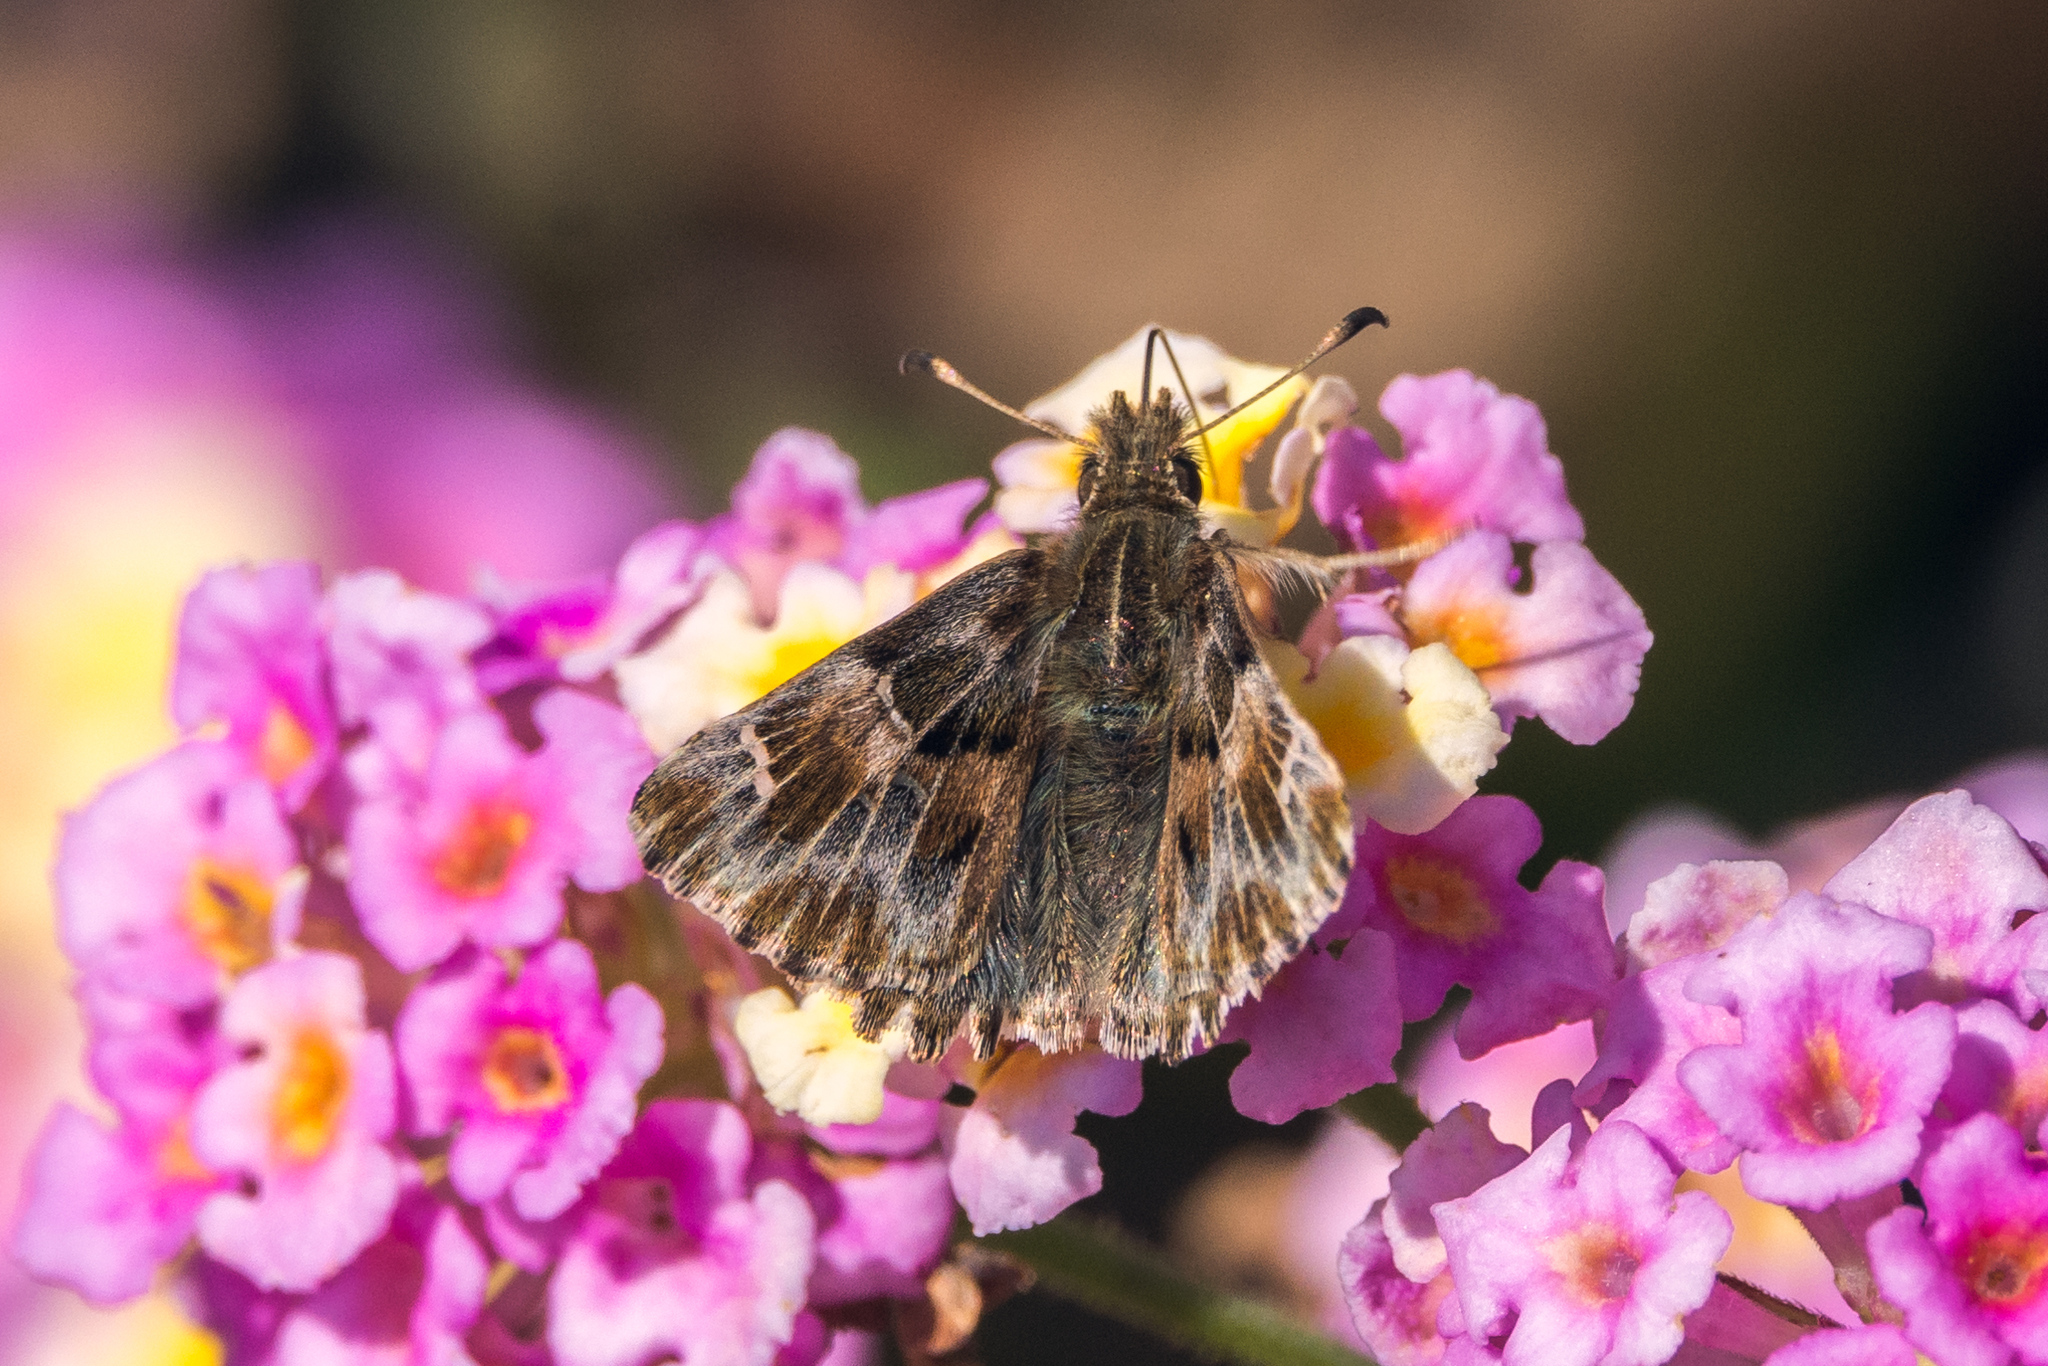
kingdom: Animalia
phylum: Arthropoda
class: Insecta
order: Lepidoptera
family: Hesperiidae
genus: Carcharodus
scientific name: Carcharodus alceae
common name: Mallow skipper
